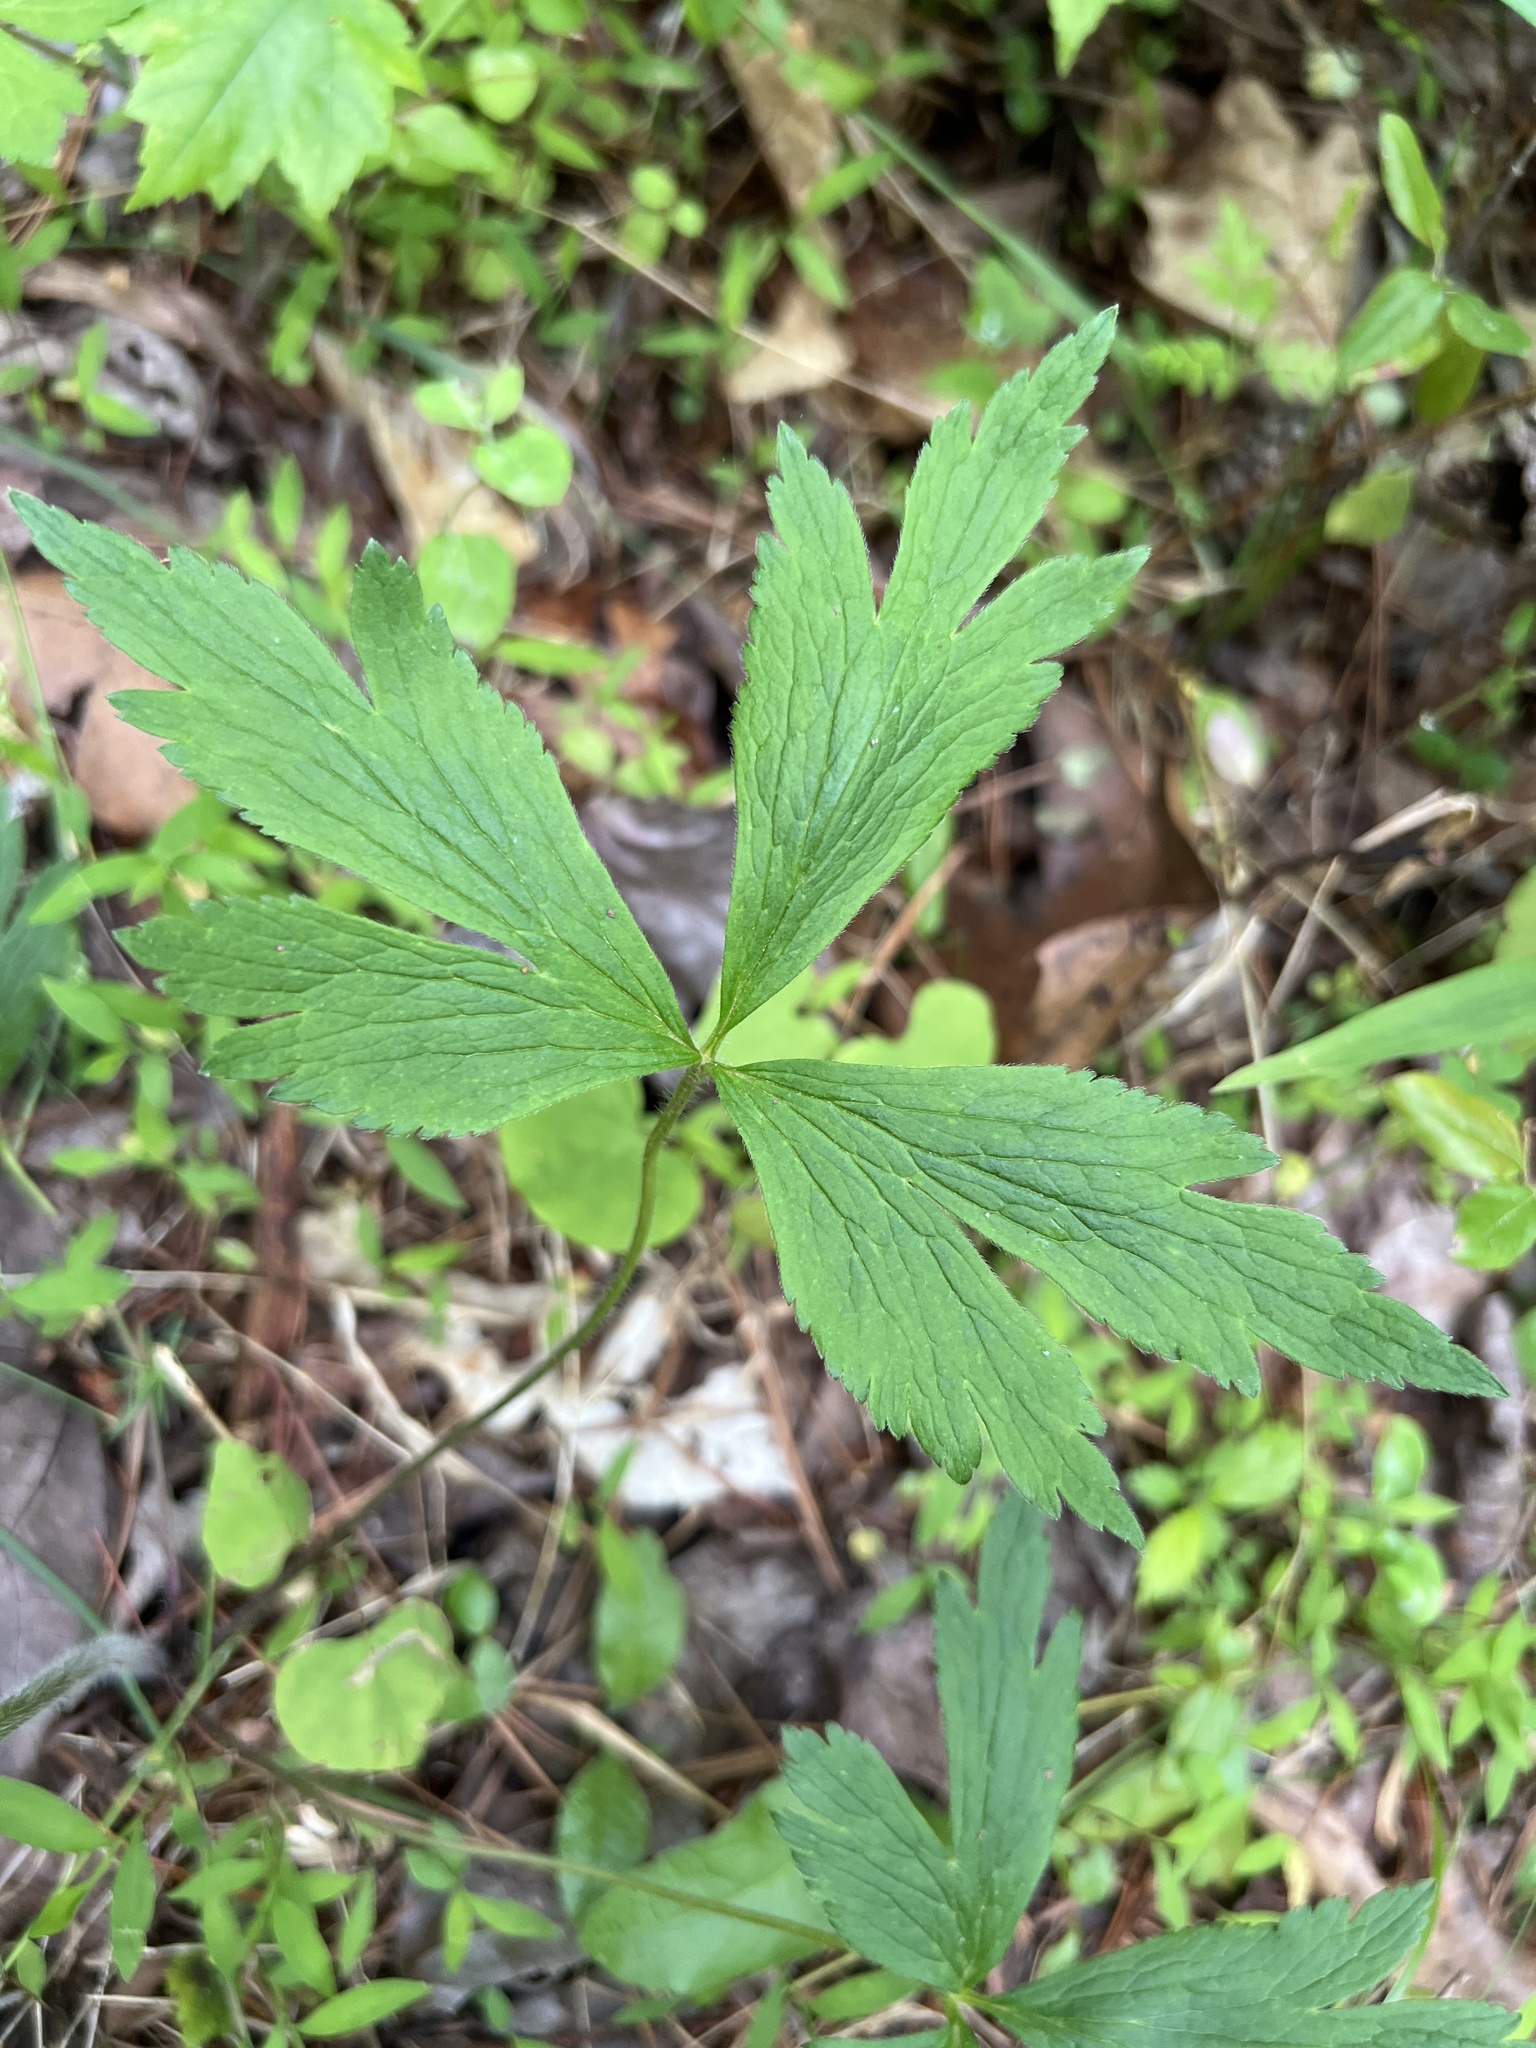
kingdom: Plantae
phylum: Tracheophyta
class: Magnoliopsida
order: Ranunculales
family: Ranunculaceae
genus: Anemone
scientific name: Anemone virginiana
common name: Tall anemone
